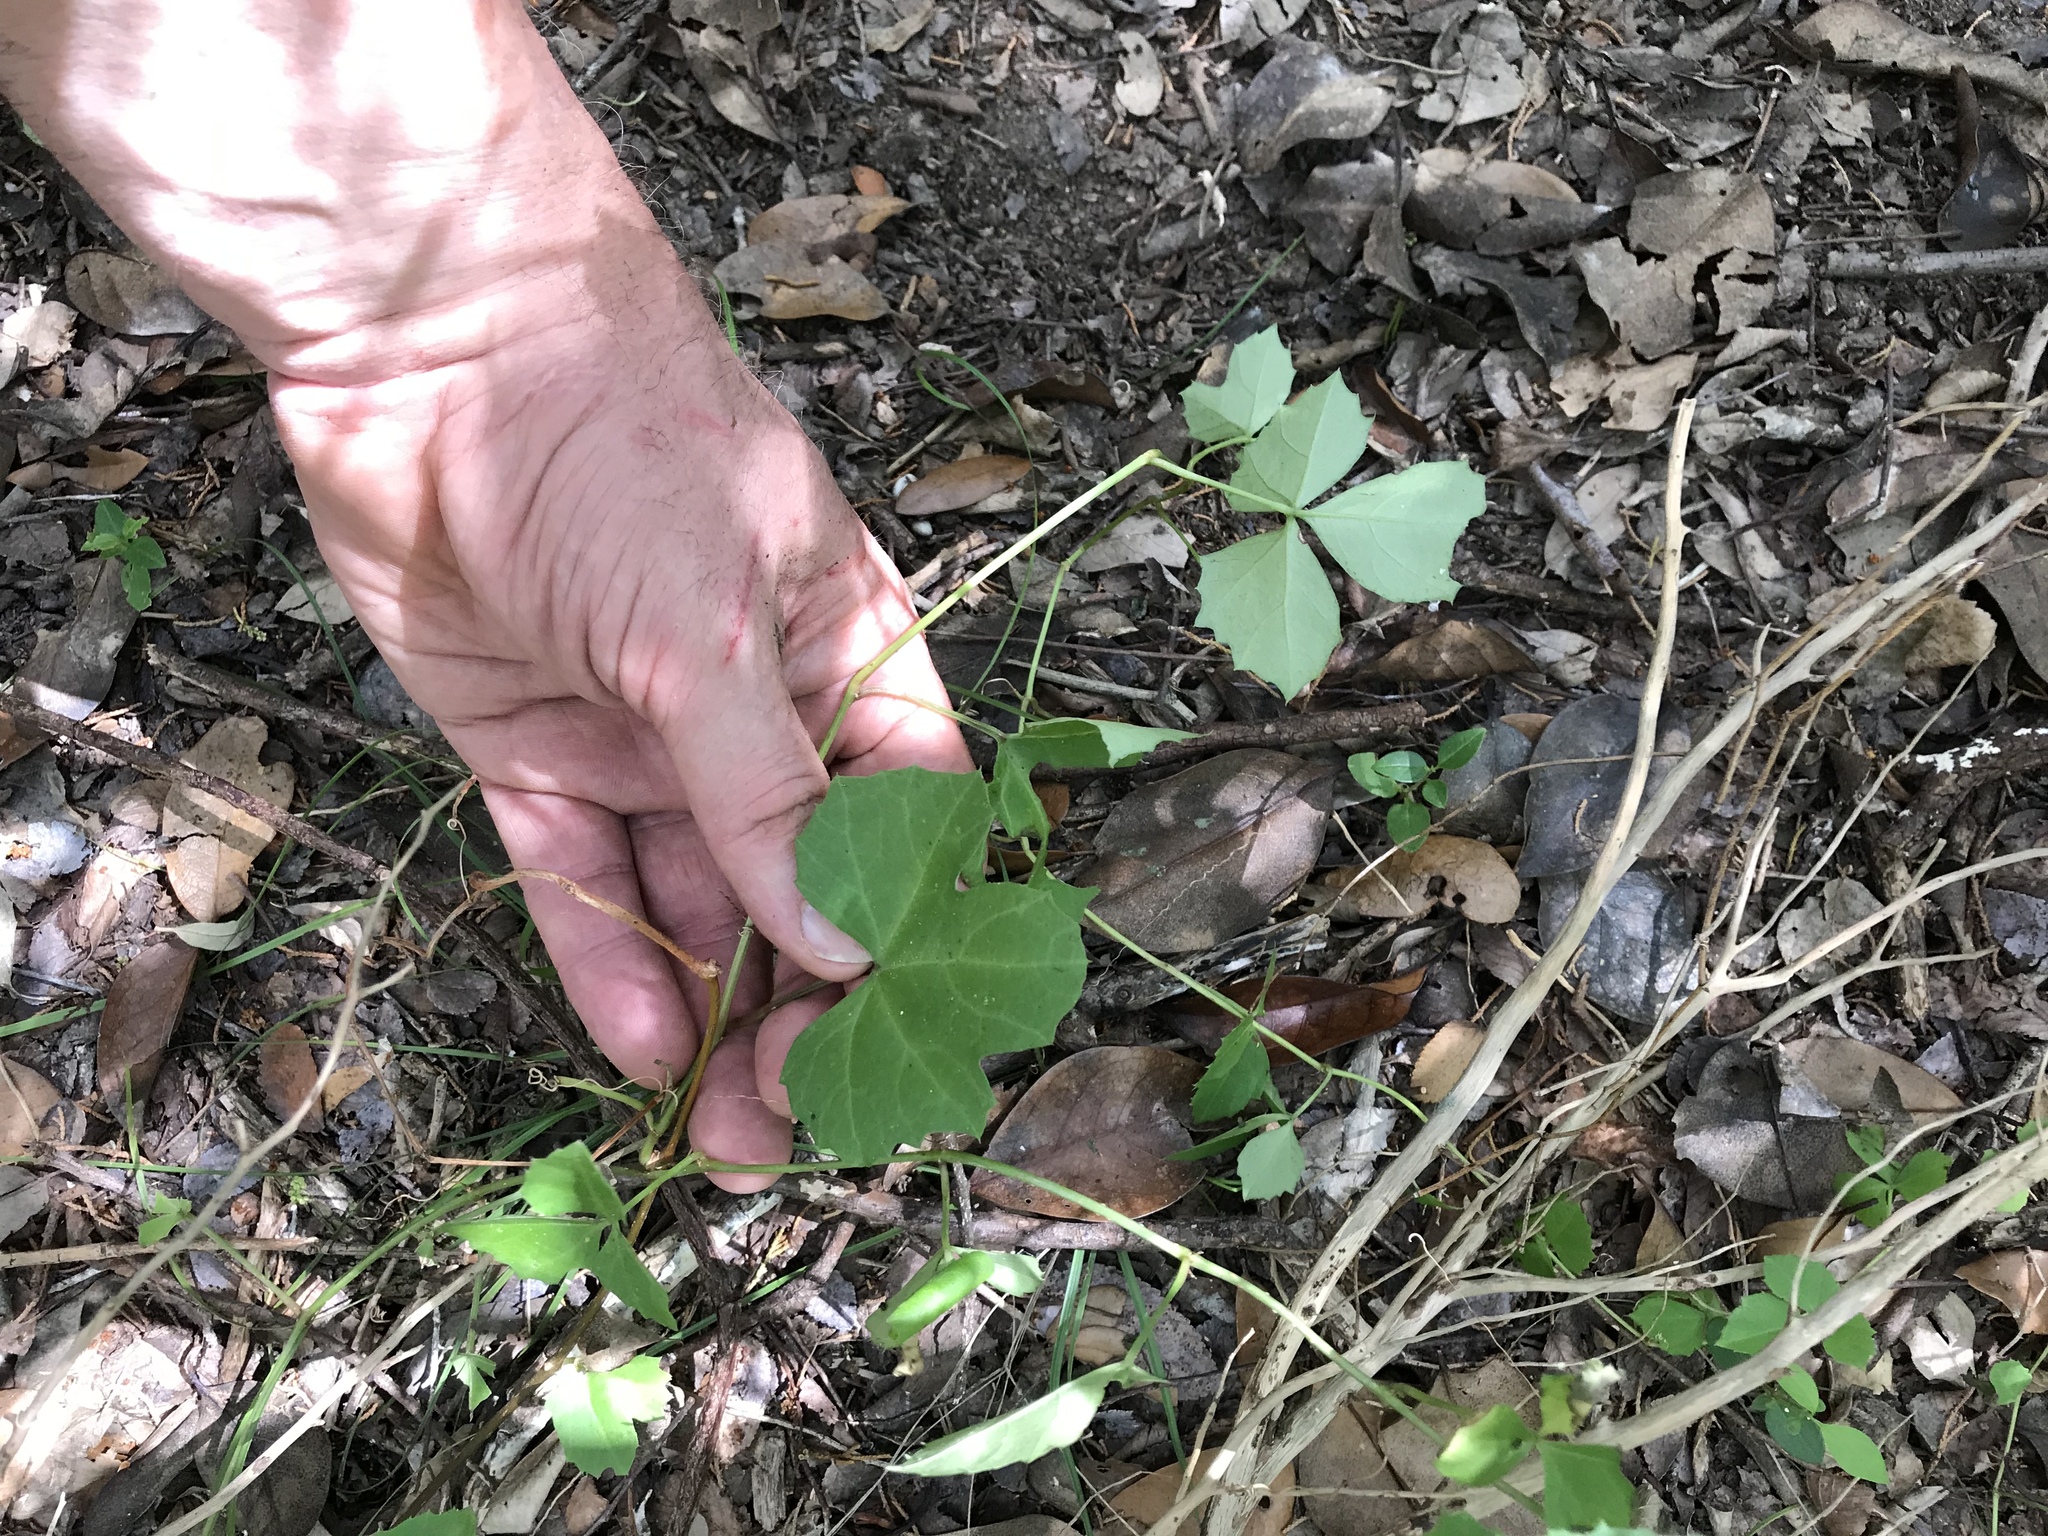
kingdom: Plantae
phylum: Tracheophyta
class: Magnoliopsida
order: Vitales
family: Vitaceae
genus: Cissus
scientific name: Cissus trifoliata
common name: Vine-sorrel
